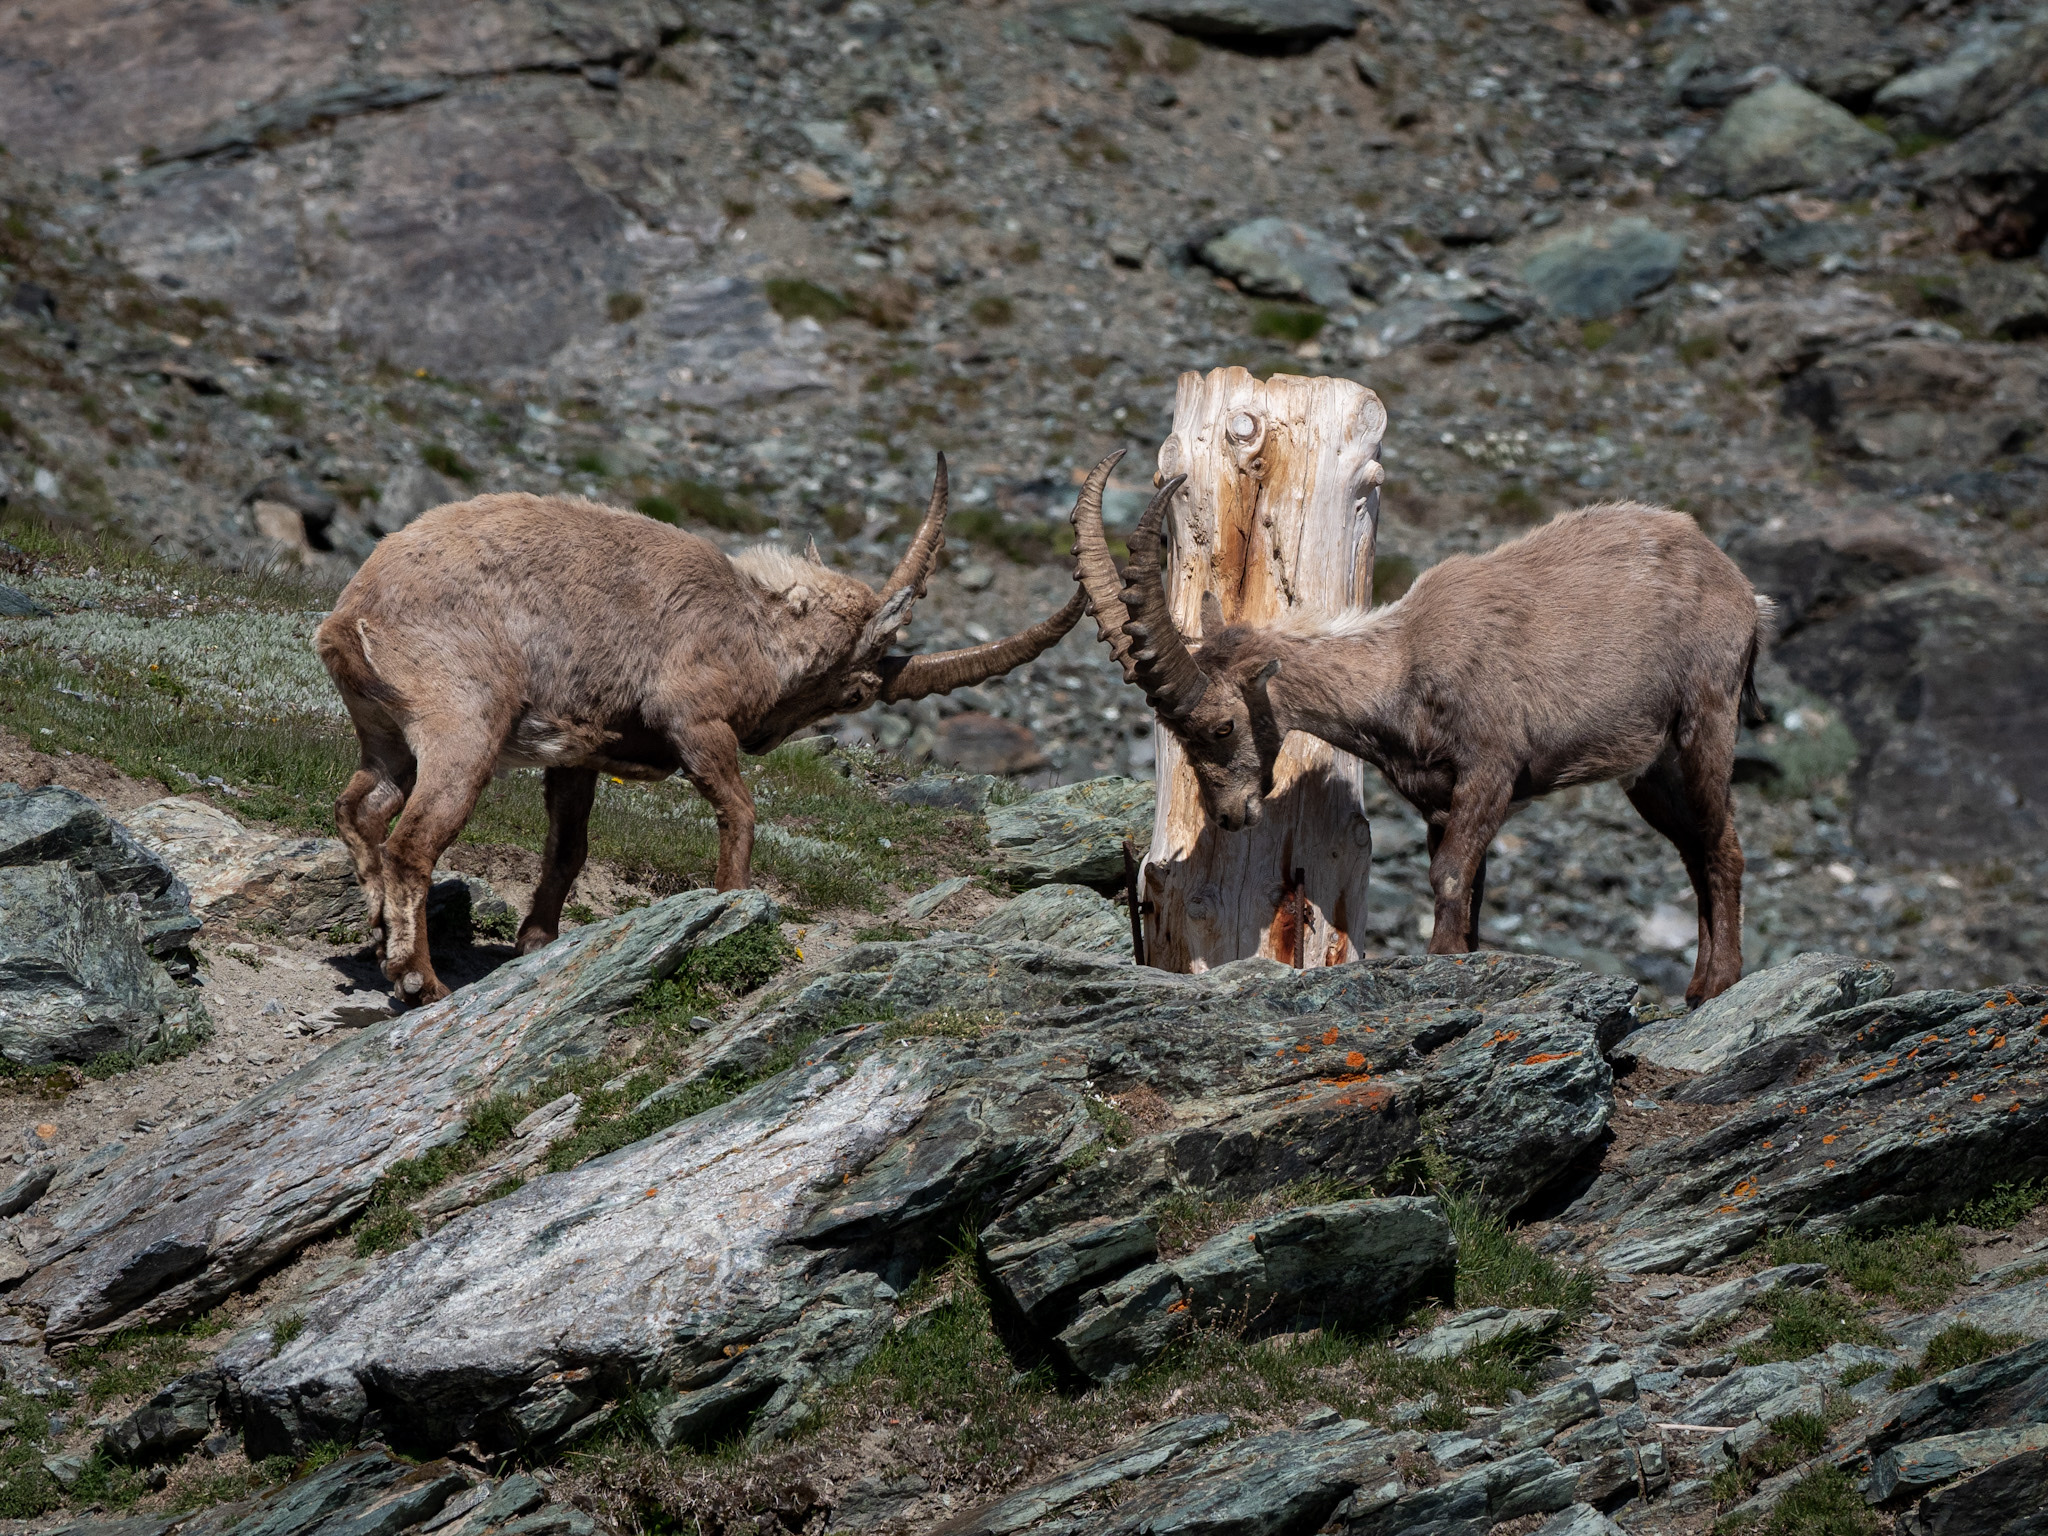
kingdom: Animalia
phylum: Chordata
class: Mammalia
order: Artiodactyla
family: Bovidae
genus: Capra
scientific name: Capra ibex
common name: Alpine ibex
